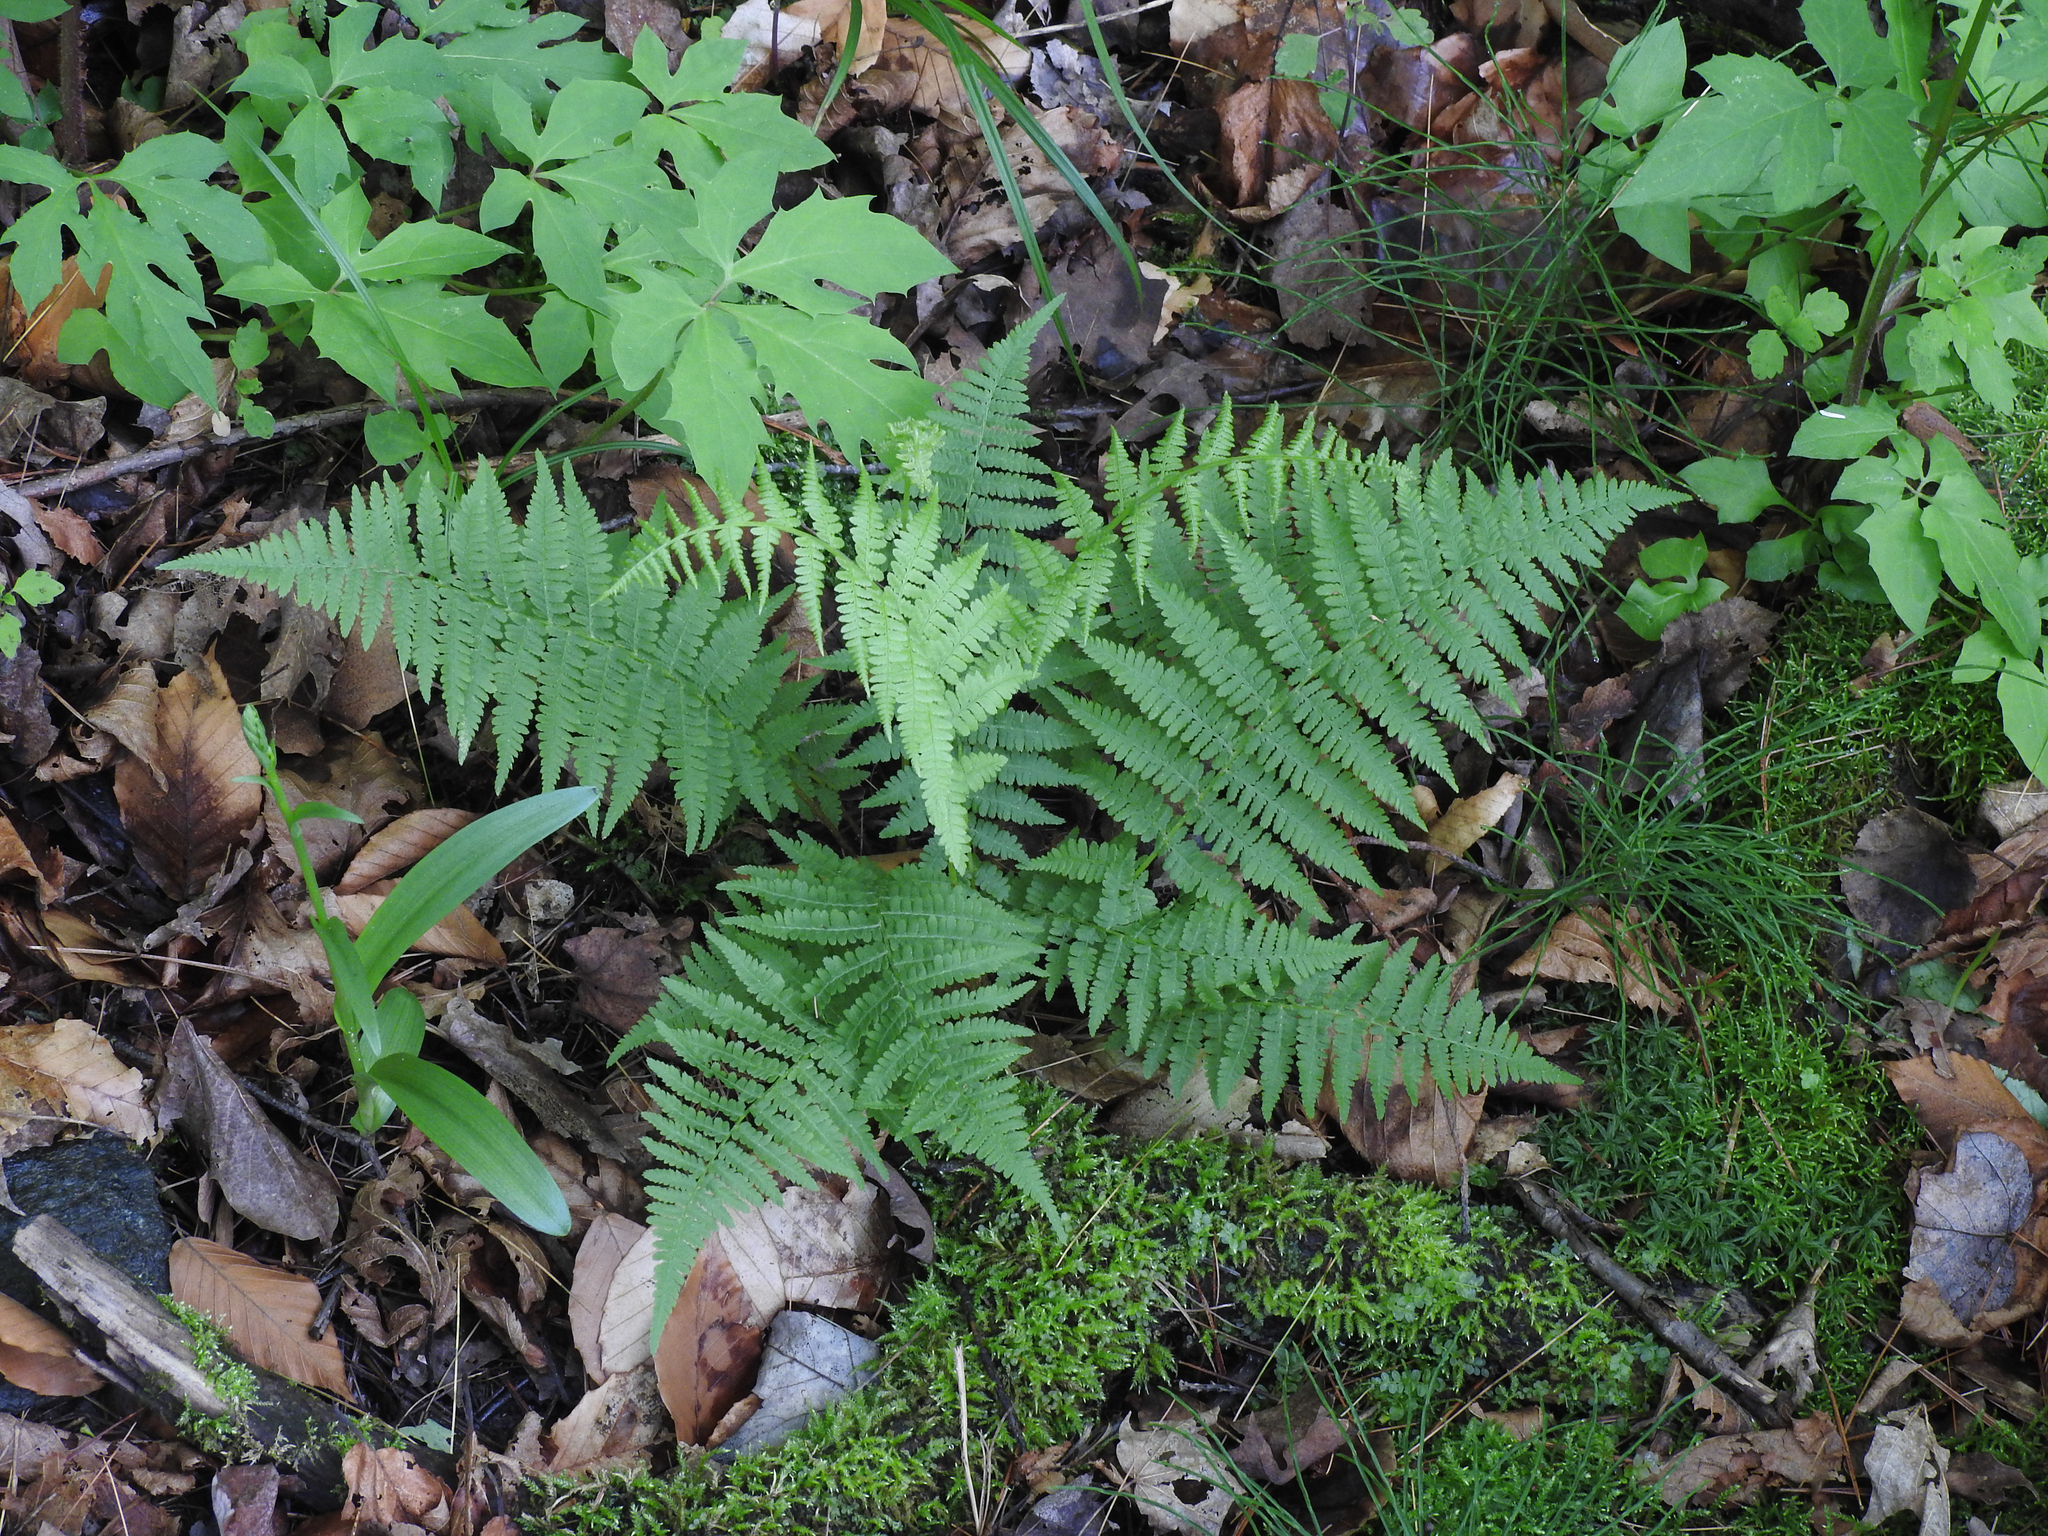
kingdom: Plantae
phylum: Tracheophyta
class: Polypodiopsida
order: Polypodiales
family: Athyriaceae
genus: Athyrium
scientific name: Athyrium angustum
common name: Northern lady fern
